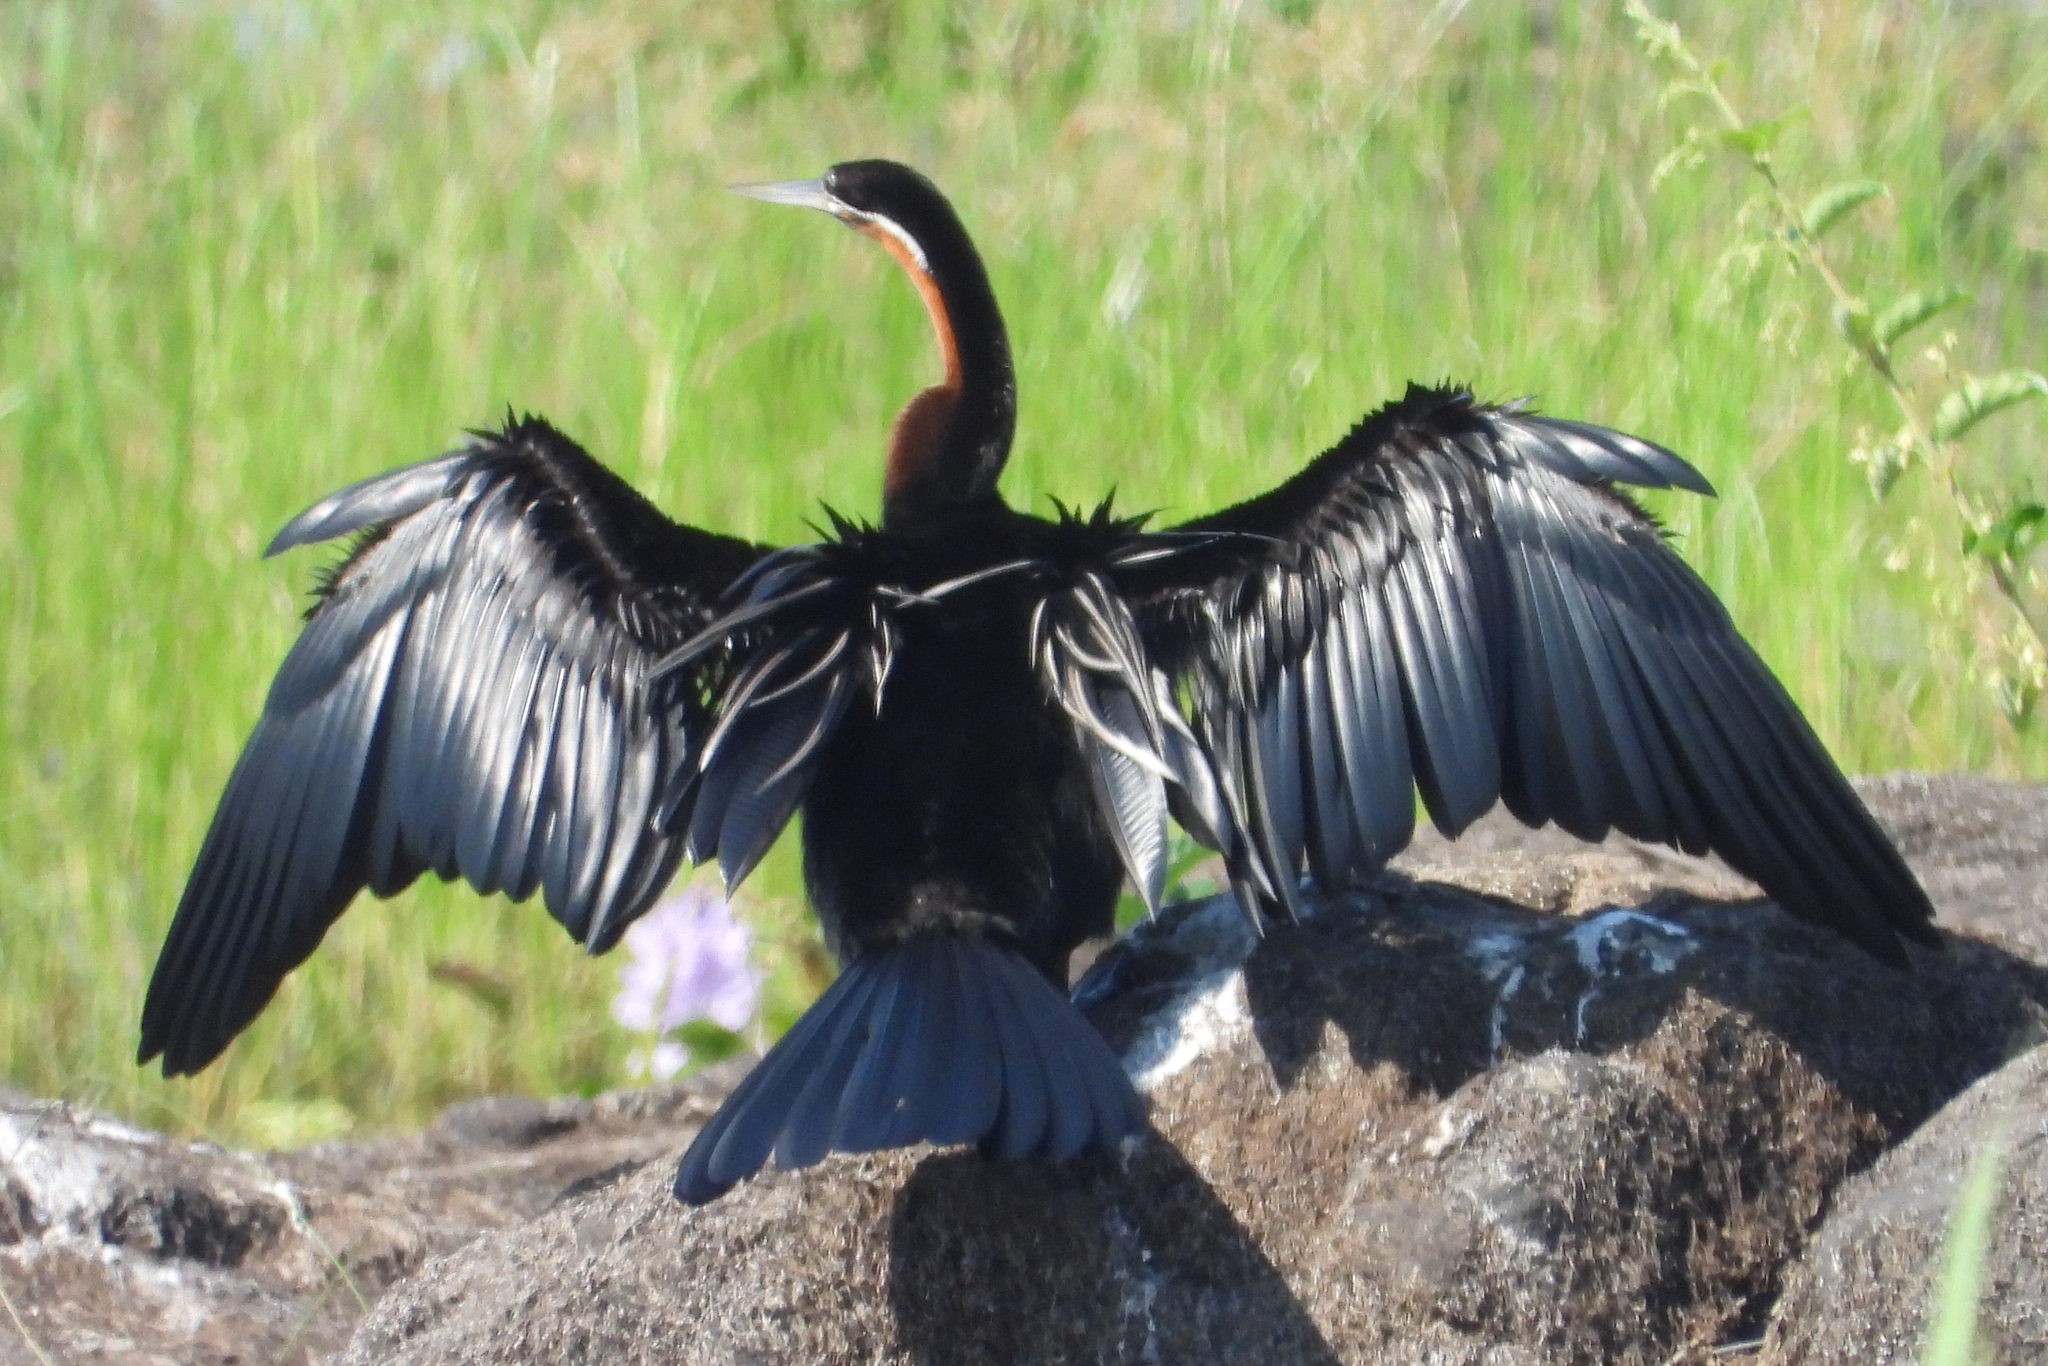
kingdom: Animalia
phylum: Chordata
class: Aves
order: Suliformes
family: Anhingidae
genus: Anhinga
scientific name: Anhinga rufa
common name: African darter
